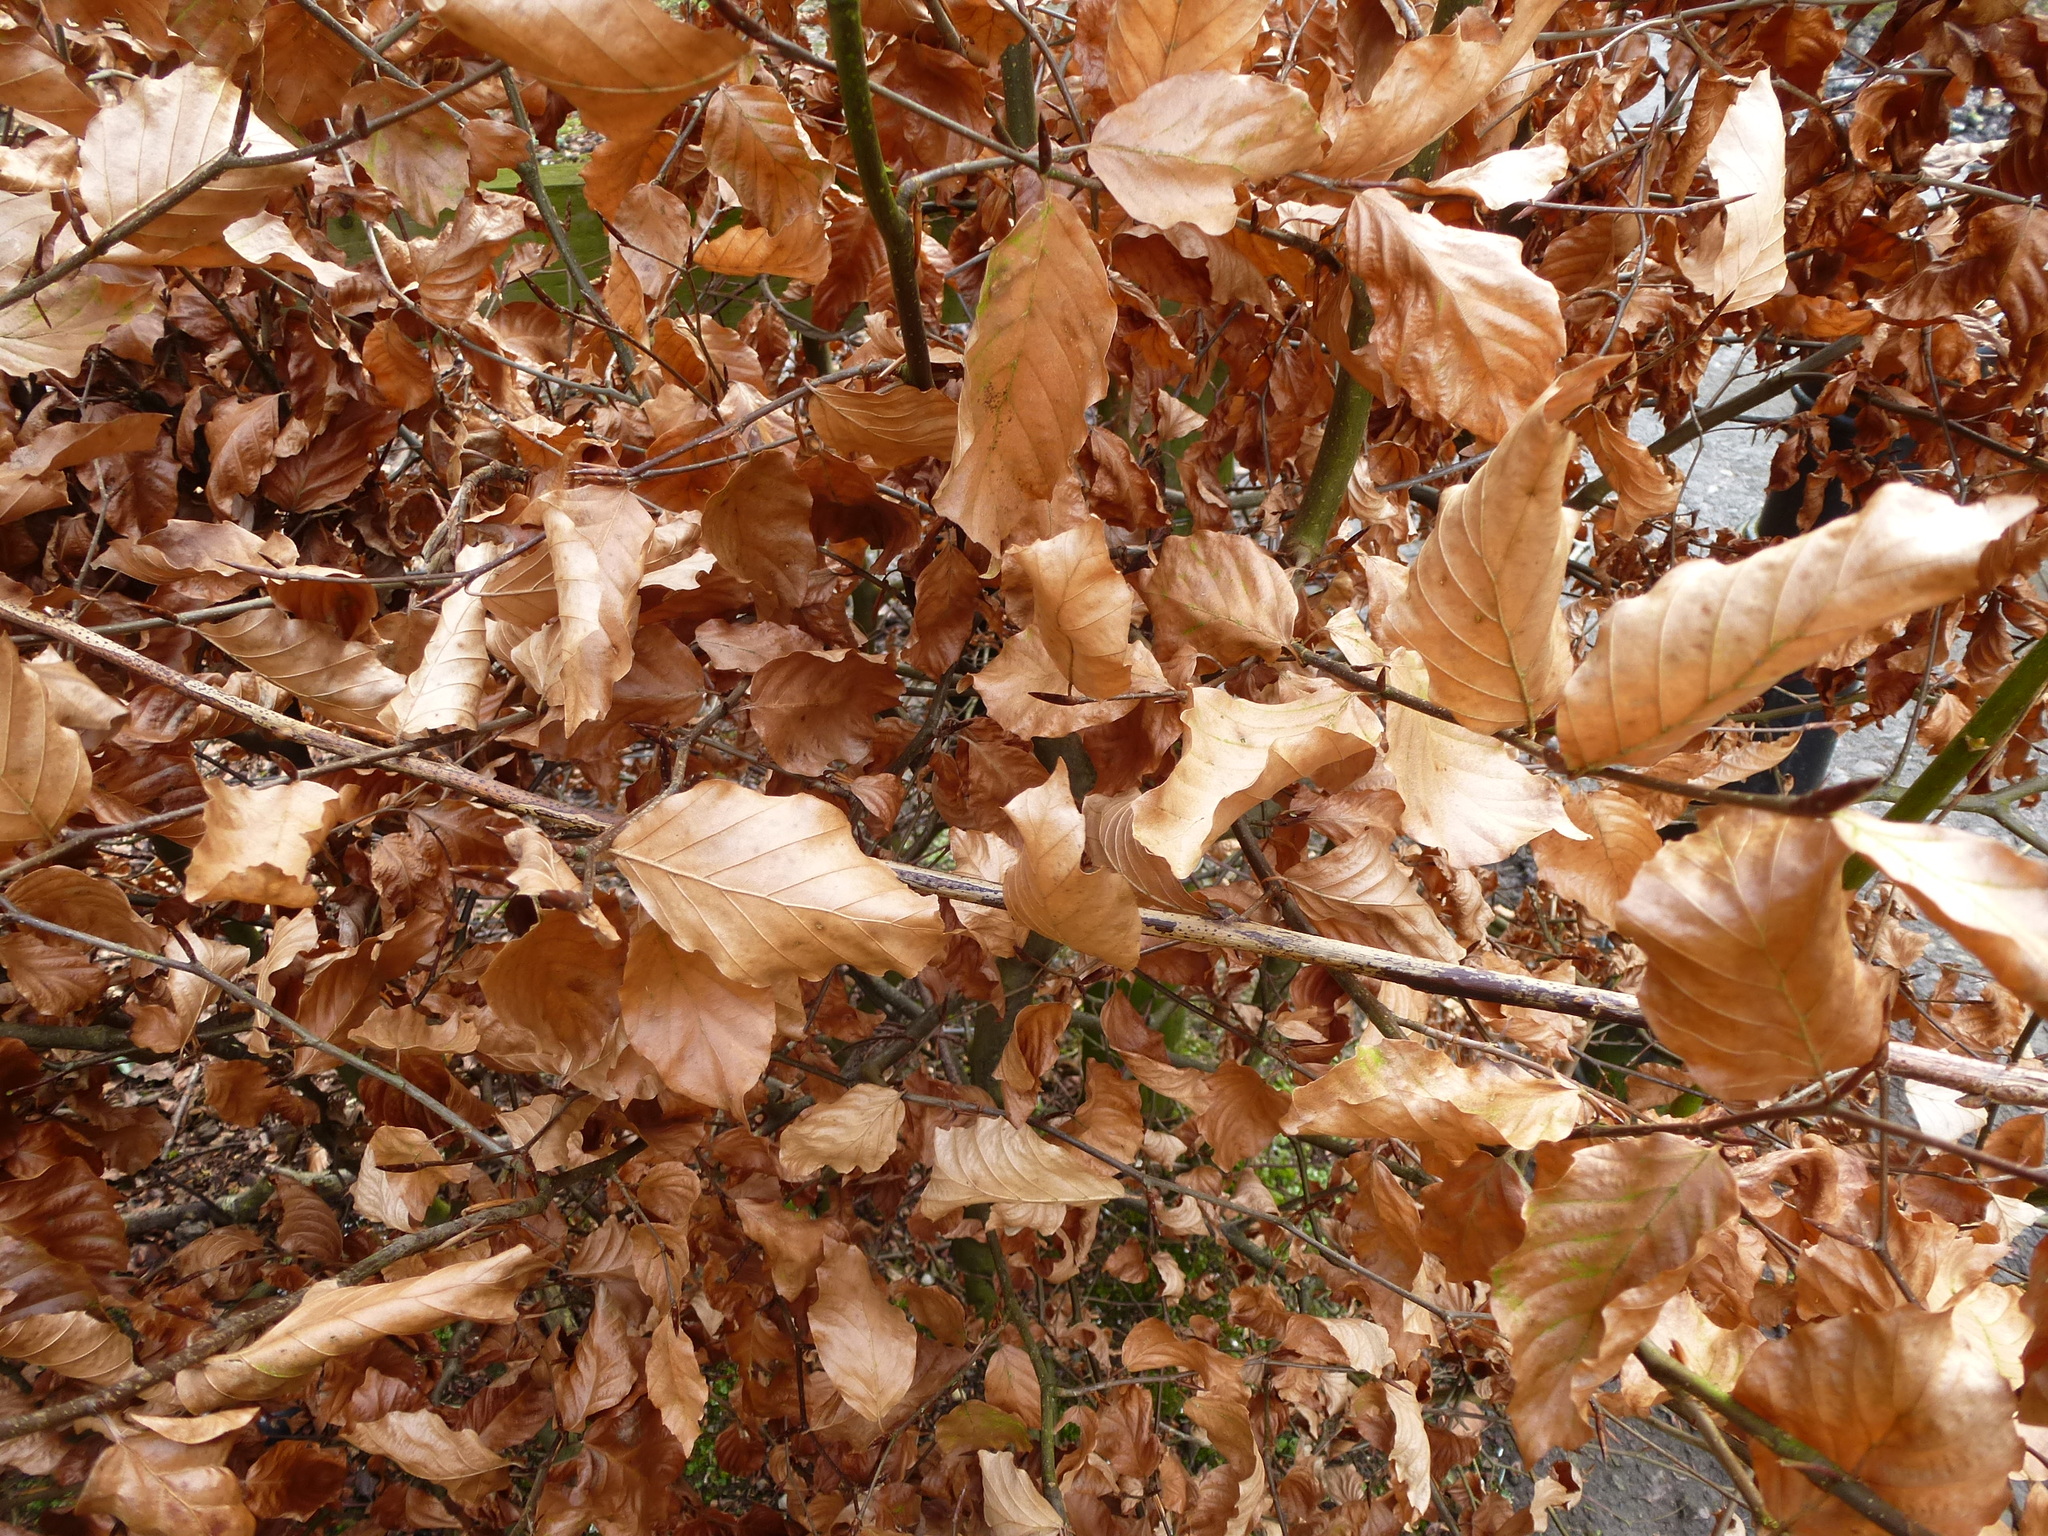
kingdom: Plantae
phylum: Tracheophyta
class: Magnoliopsida
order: Fagales
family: Fagaceae
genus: Fagus
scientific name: Fagus sylvatica
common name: Beech
